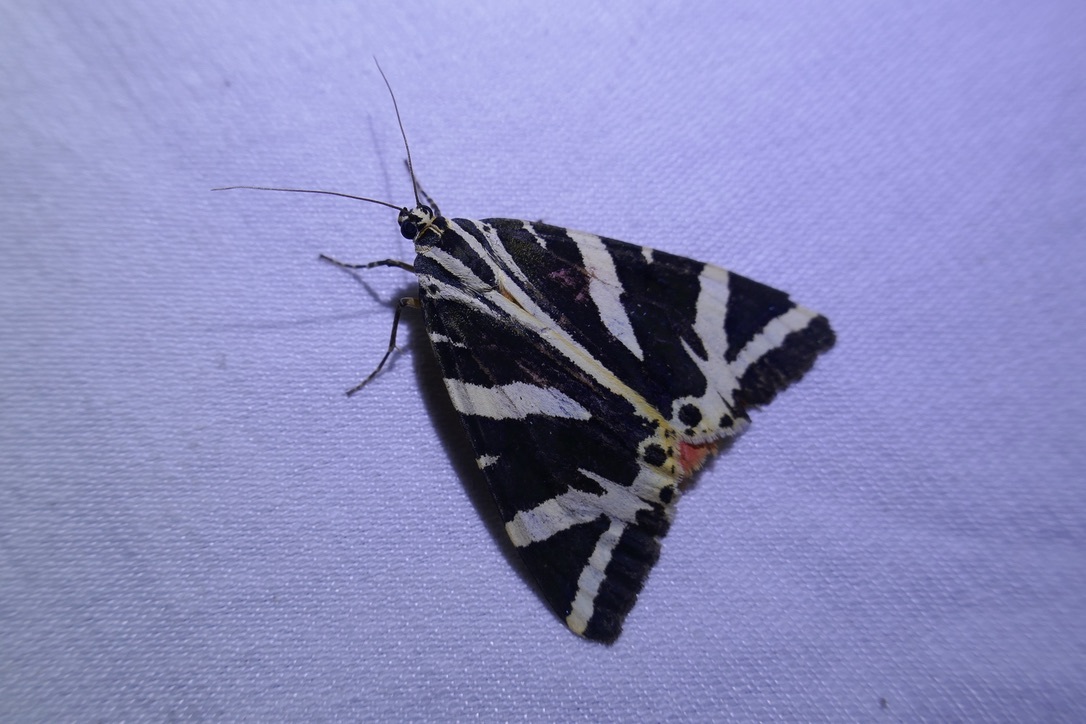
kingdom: Animalia
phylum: Arthropoda
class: Insecta
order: Lepidoptera
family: Erebidae
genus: Euplagia
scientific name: Euplagia quadripunctaria
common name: Jersey tiger
